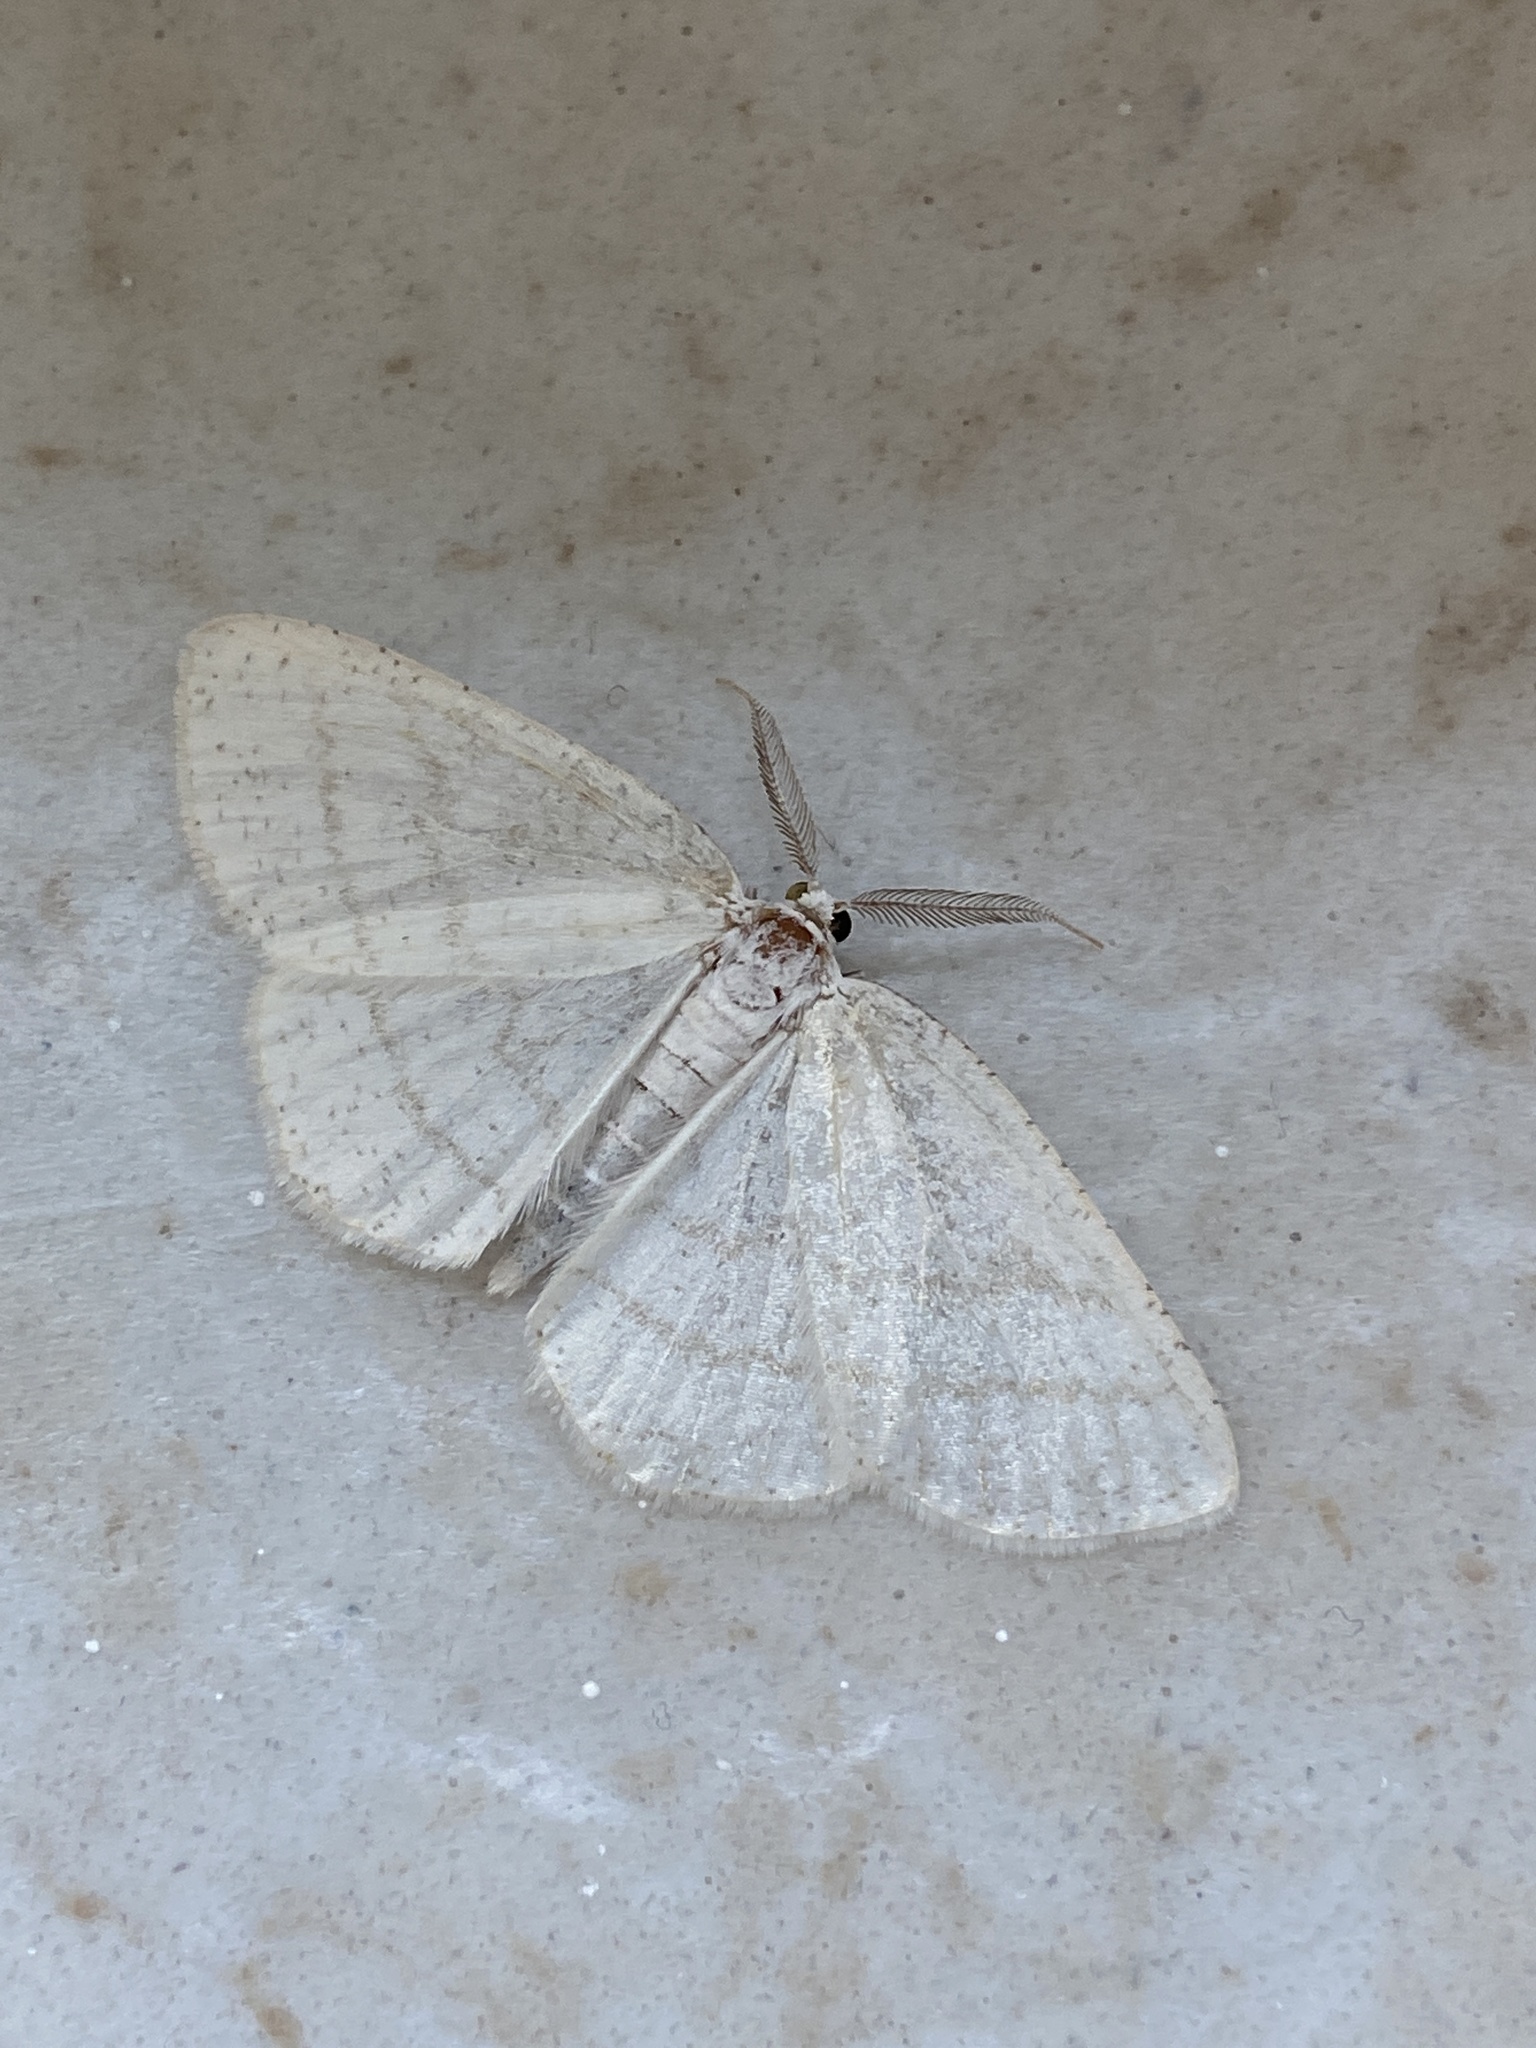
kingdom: Animalia
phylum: Arthropoda
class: Insecta
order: Lepidoptera
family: Geometridae
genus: Cabera
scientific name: Cabera pusaria
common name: Common white wave
